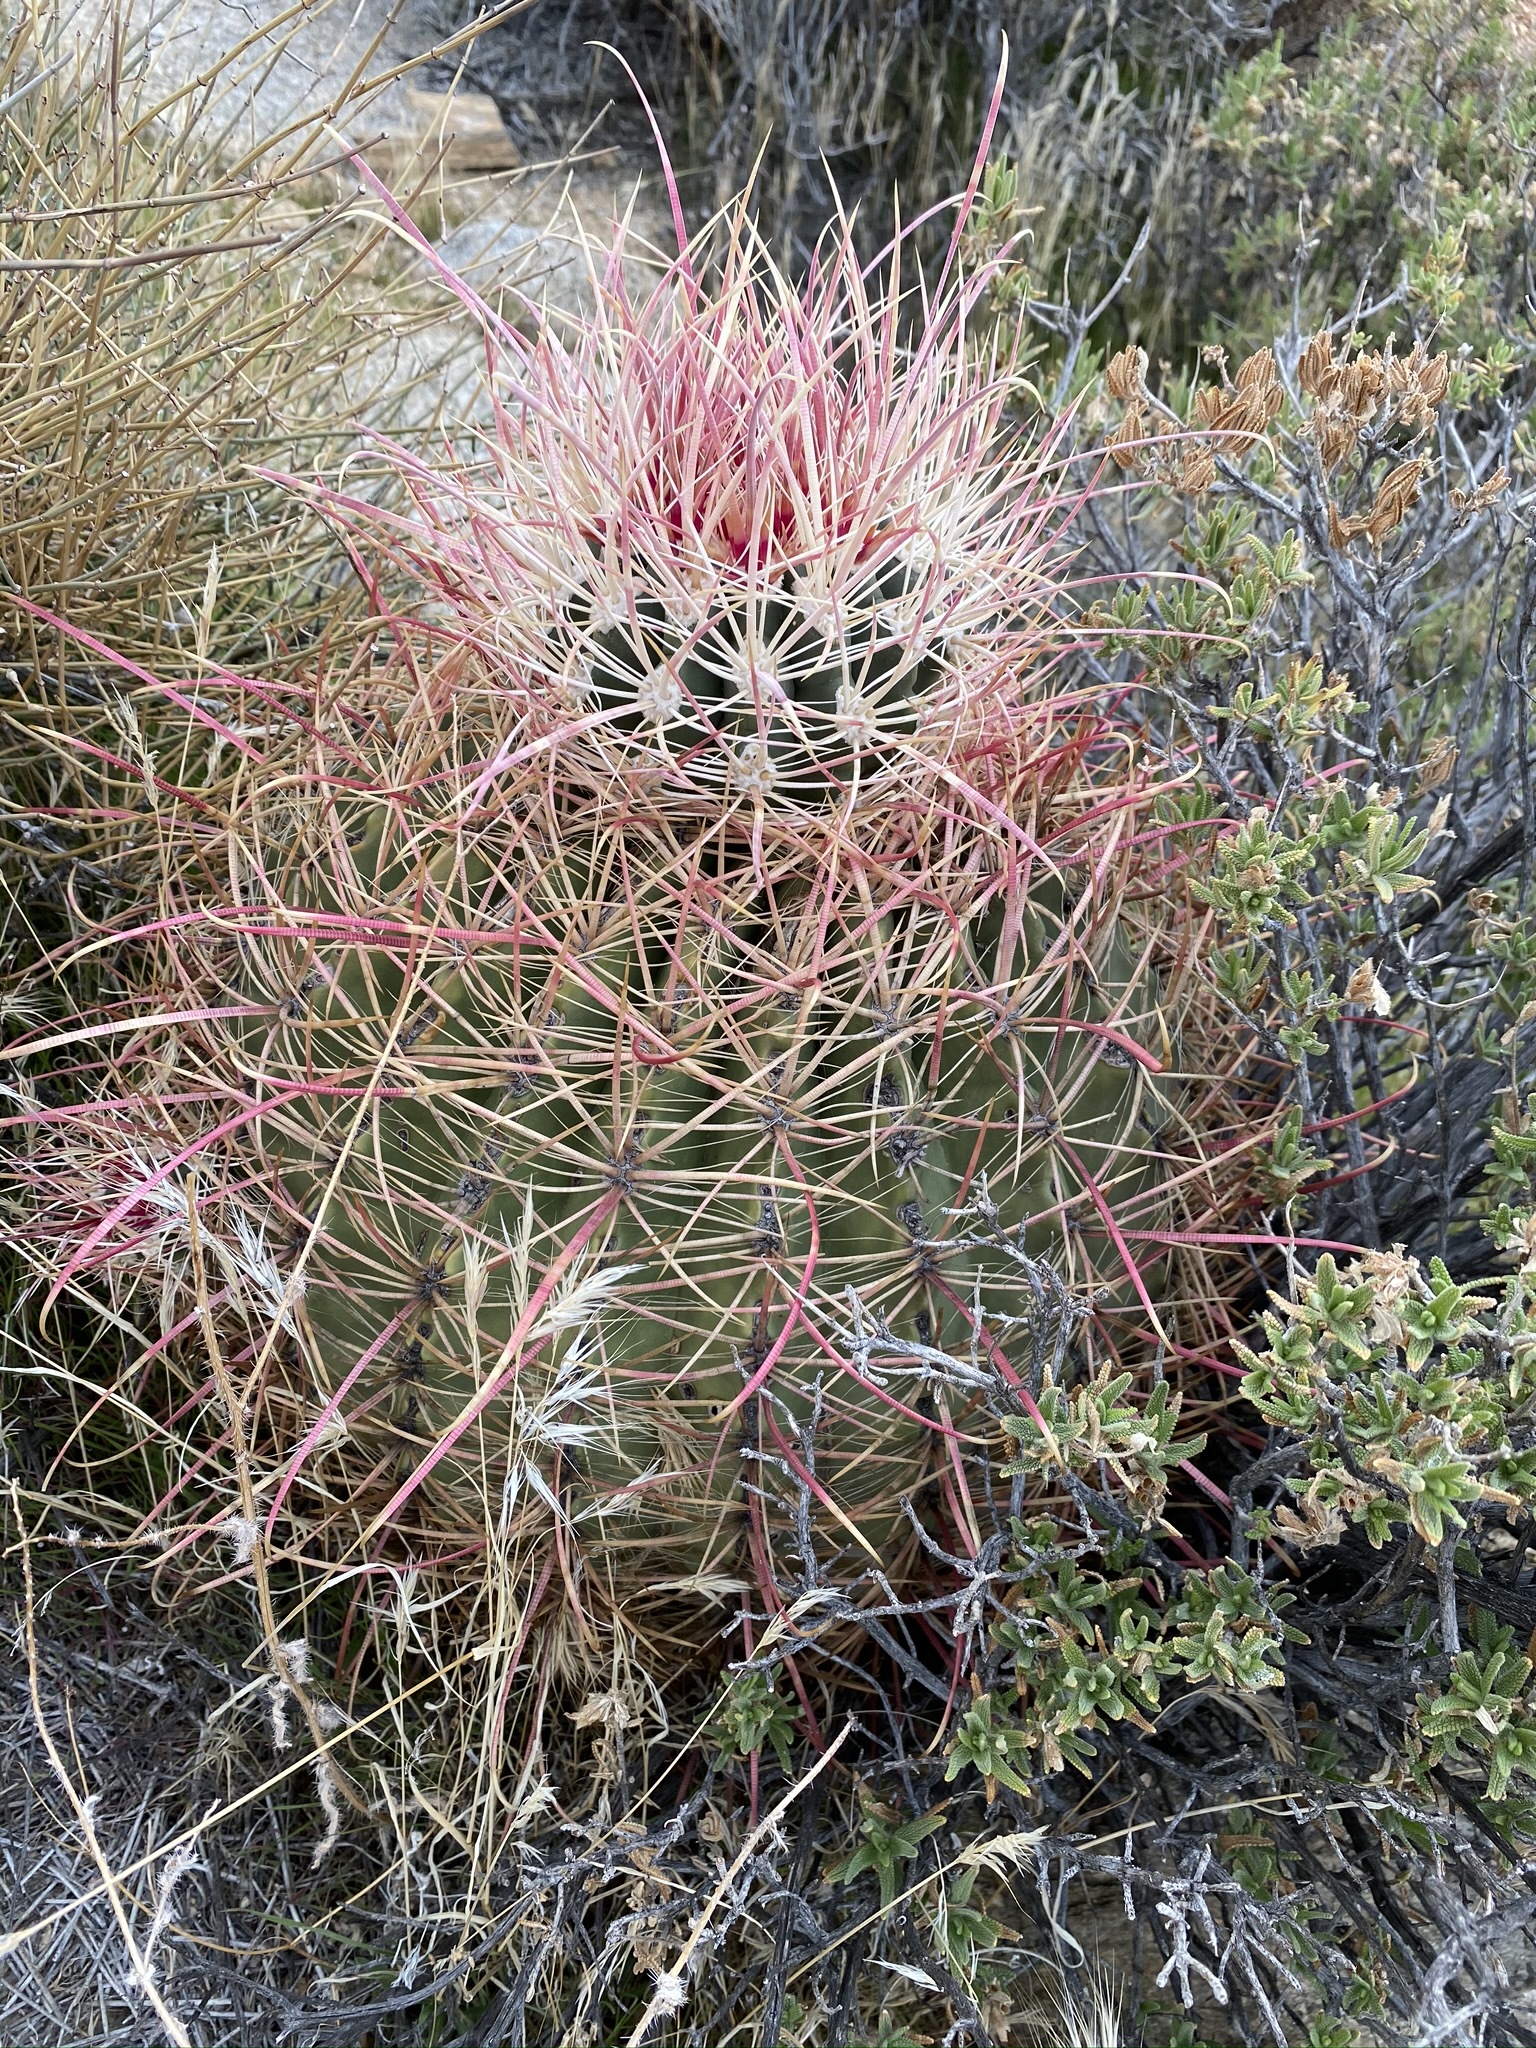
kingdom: Plantae
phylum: Tracheophyta
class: Magnoliopsida
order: Caryophyllales
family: Cactaceae
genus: Ferocactus
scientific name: Ferocactus cylindraceus
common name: California barrel cactus
